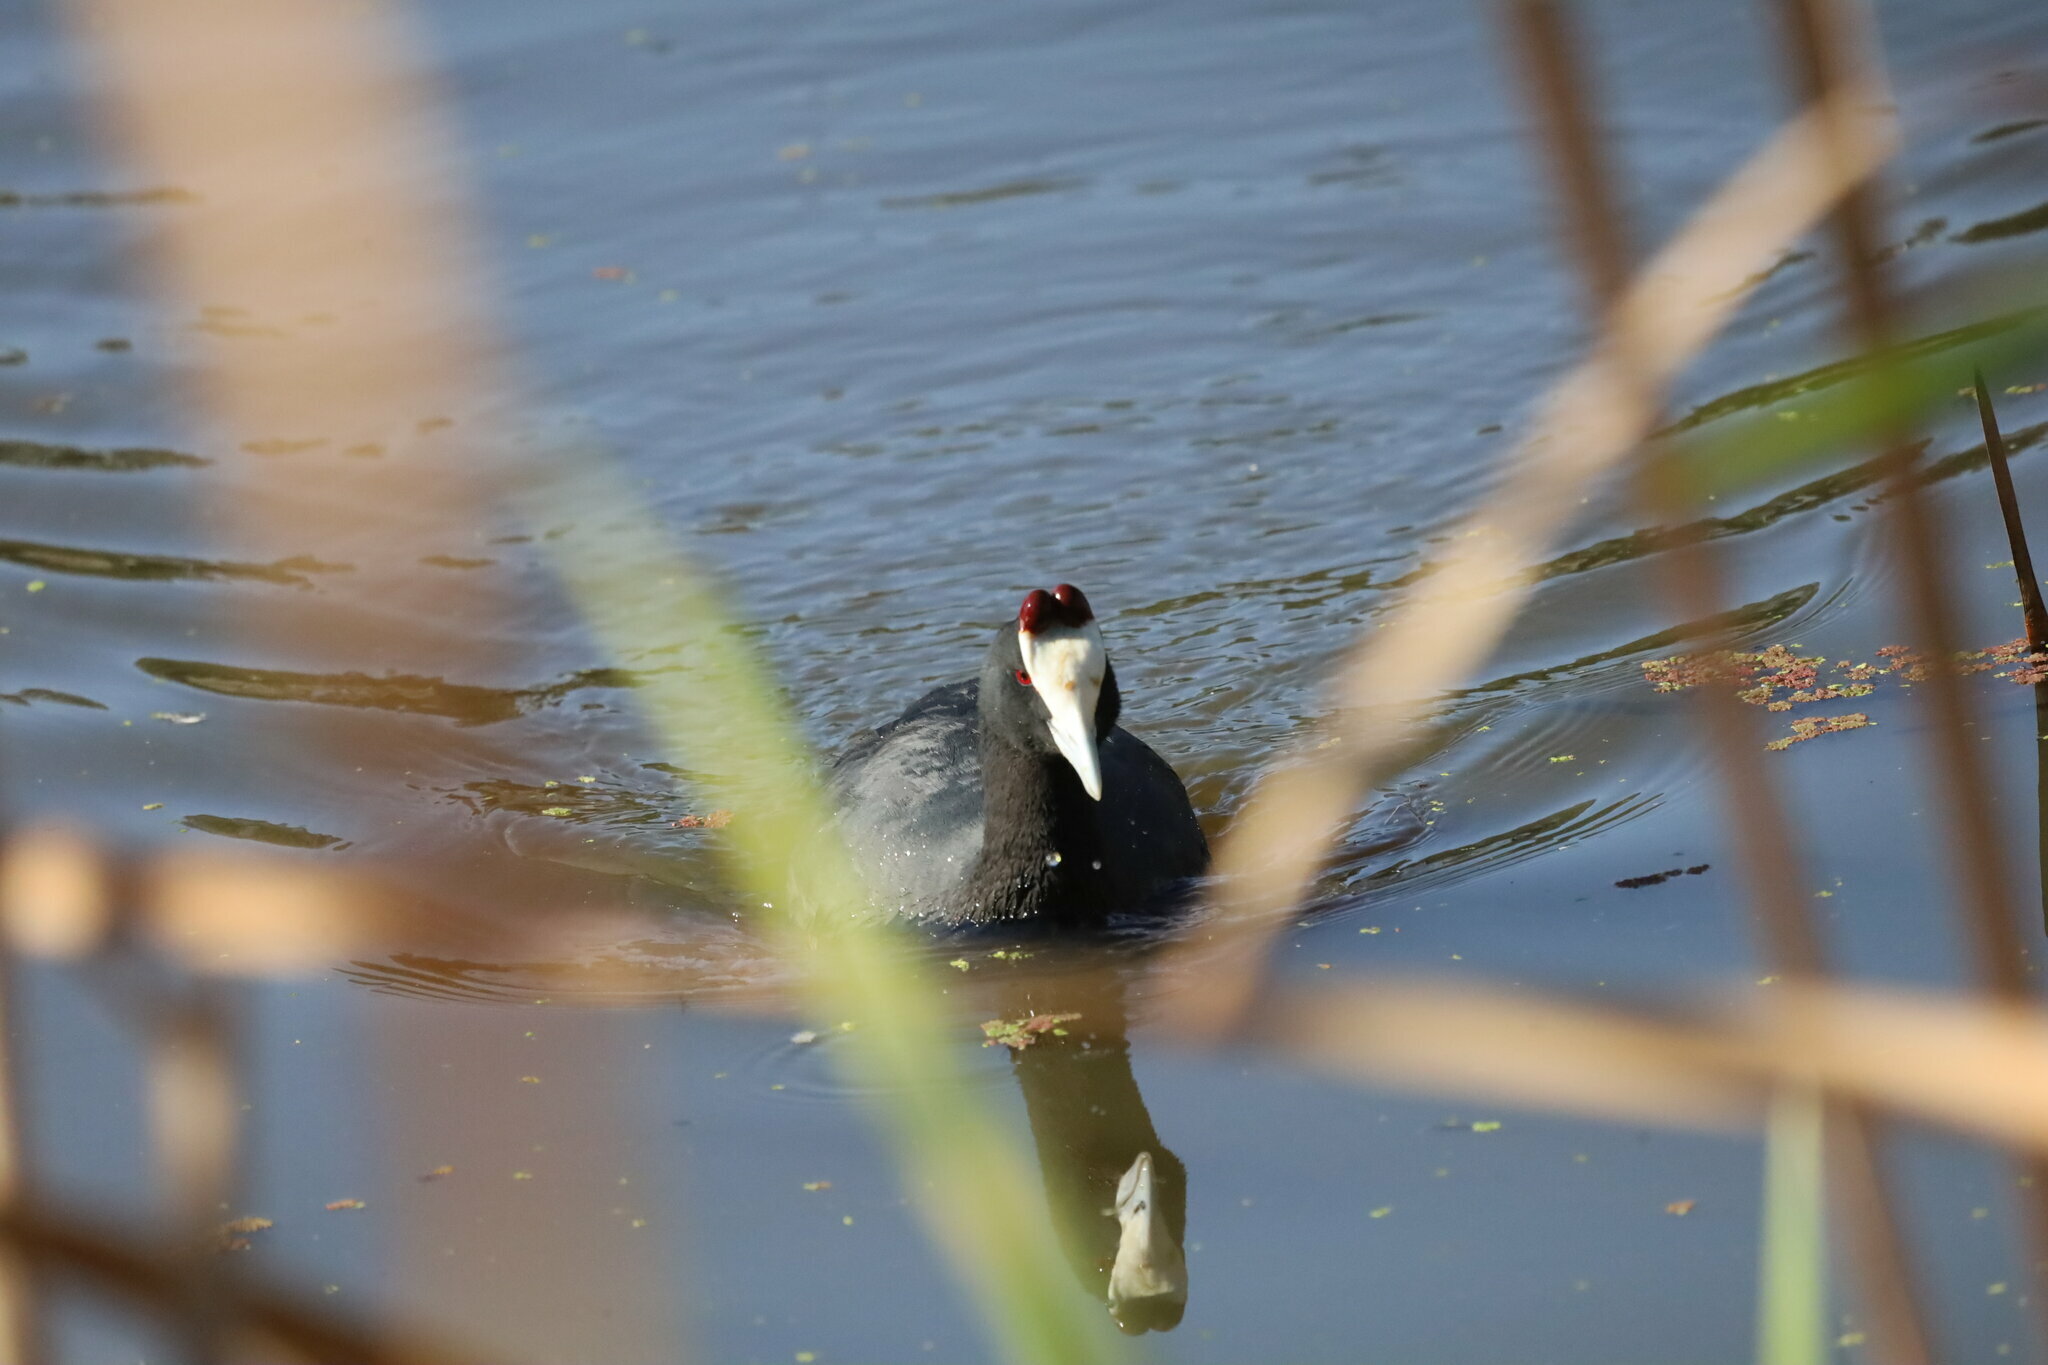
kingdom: Animalia
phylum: Chordata
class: Aves
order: Gruiformes
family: Rallidae
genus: Fulica
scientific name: Fulica cristata
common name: Red-knobbed coot
